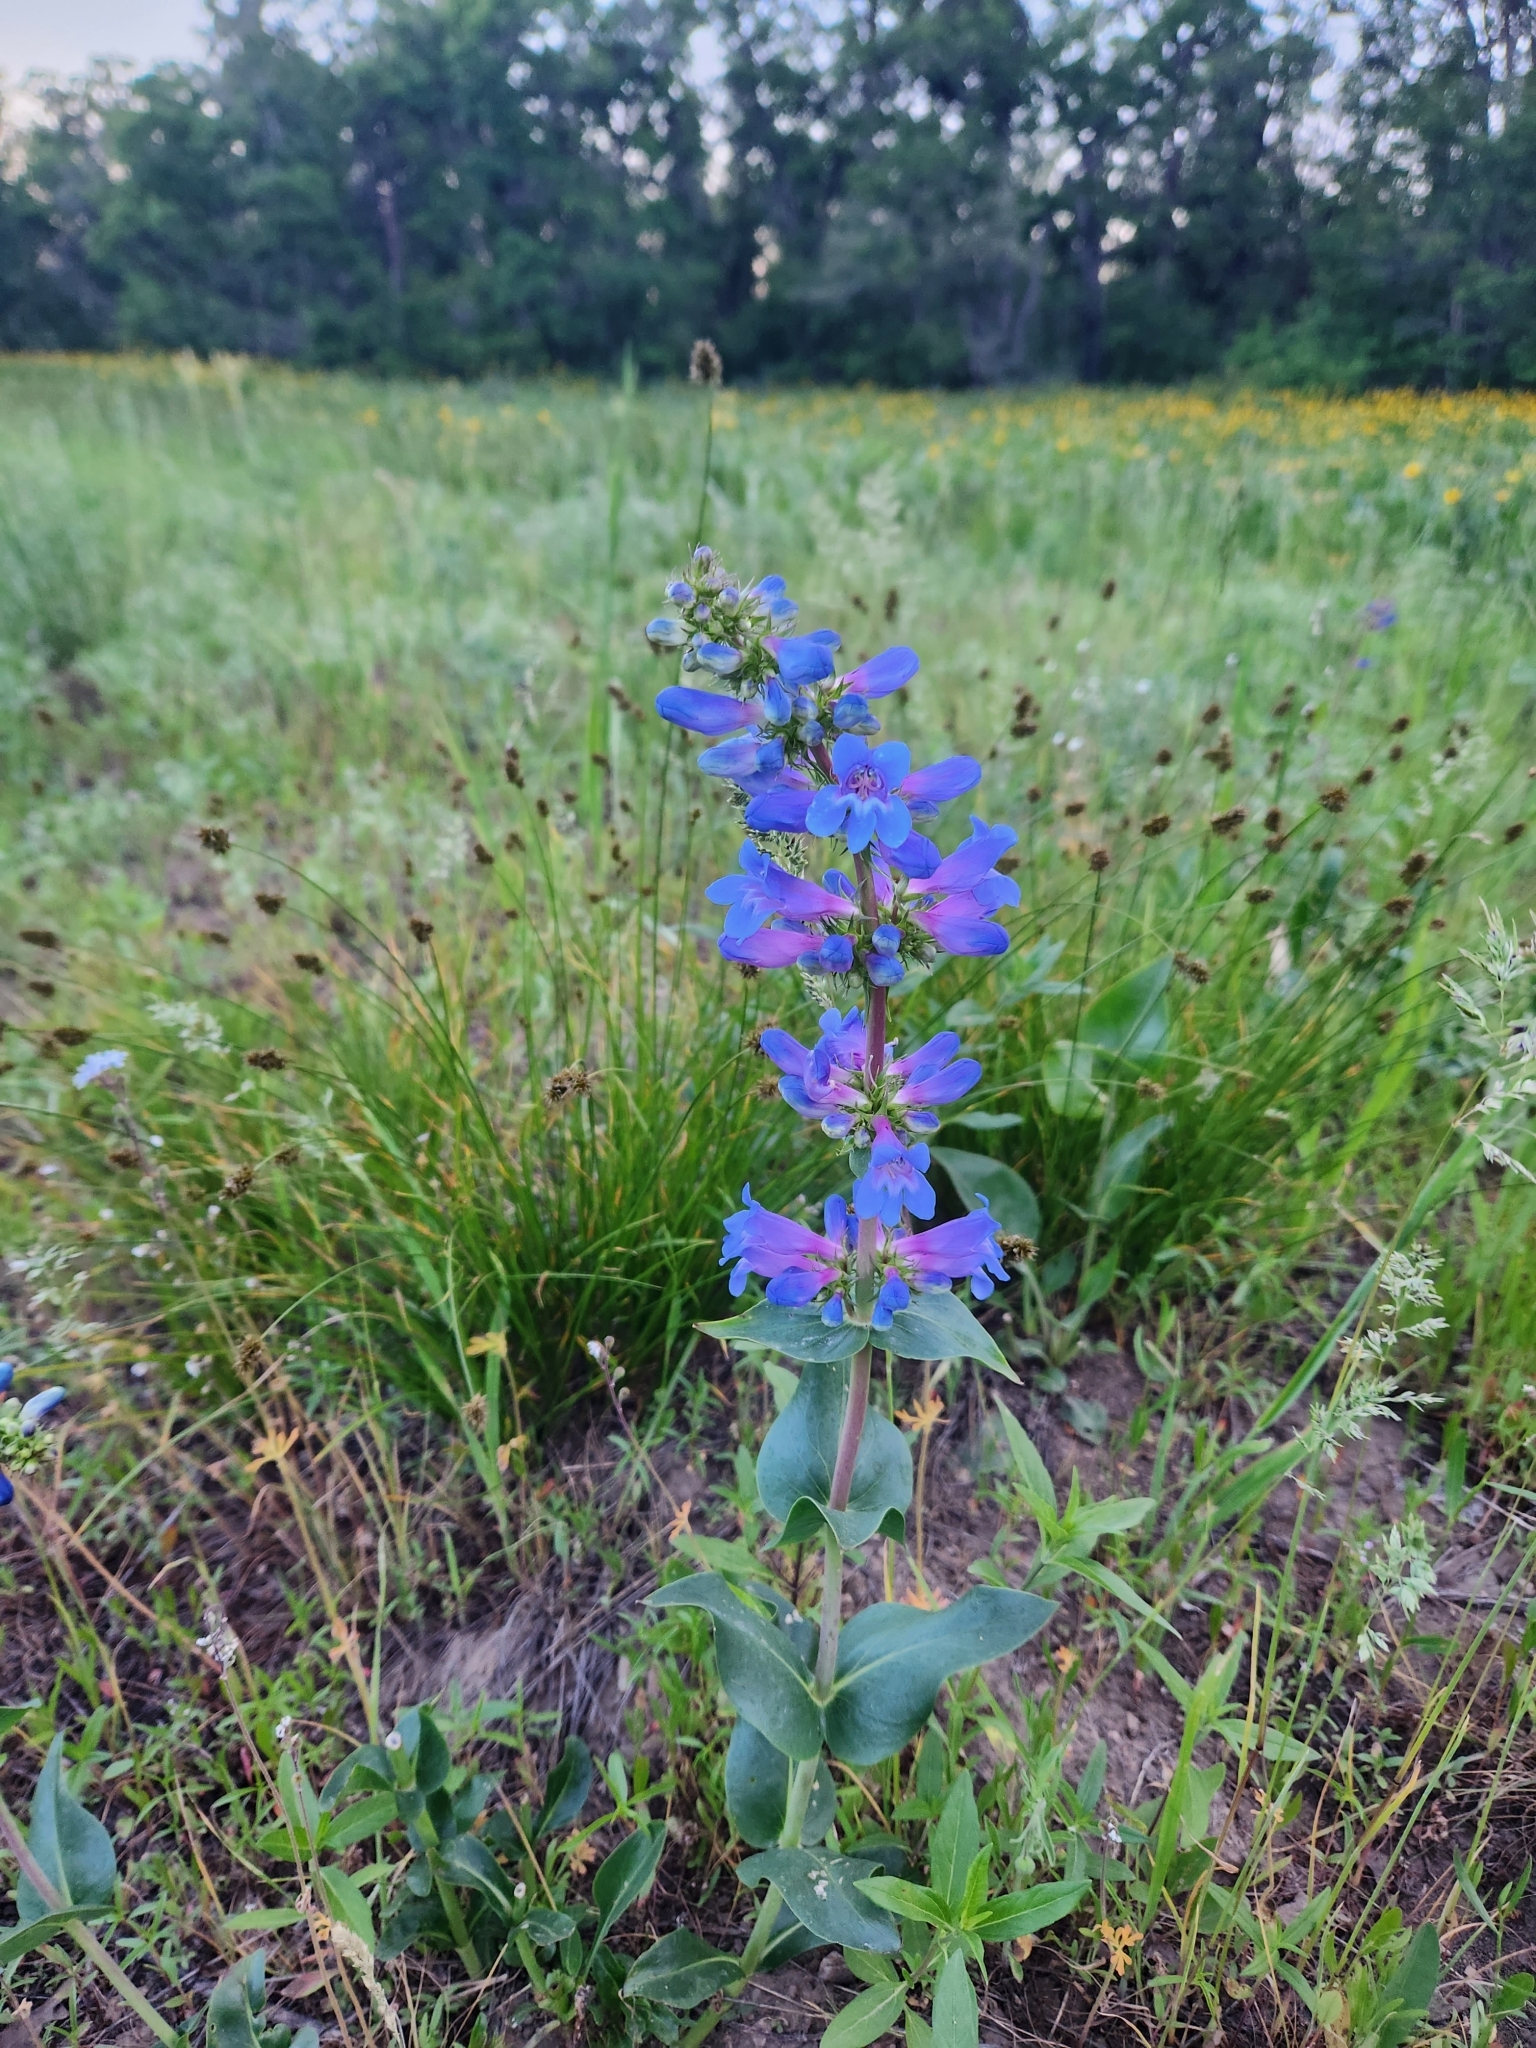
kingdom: Plantae
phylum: Tracheophyta
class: Magnoliopsida
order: Lamiales
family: Plantaginaceae
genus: Penstemon
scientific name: Penstemon cyananthus
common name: Wasatch penstemon
